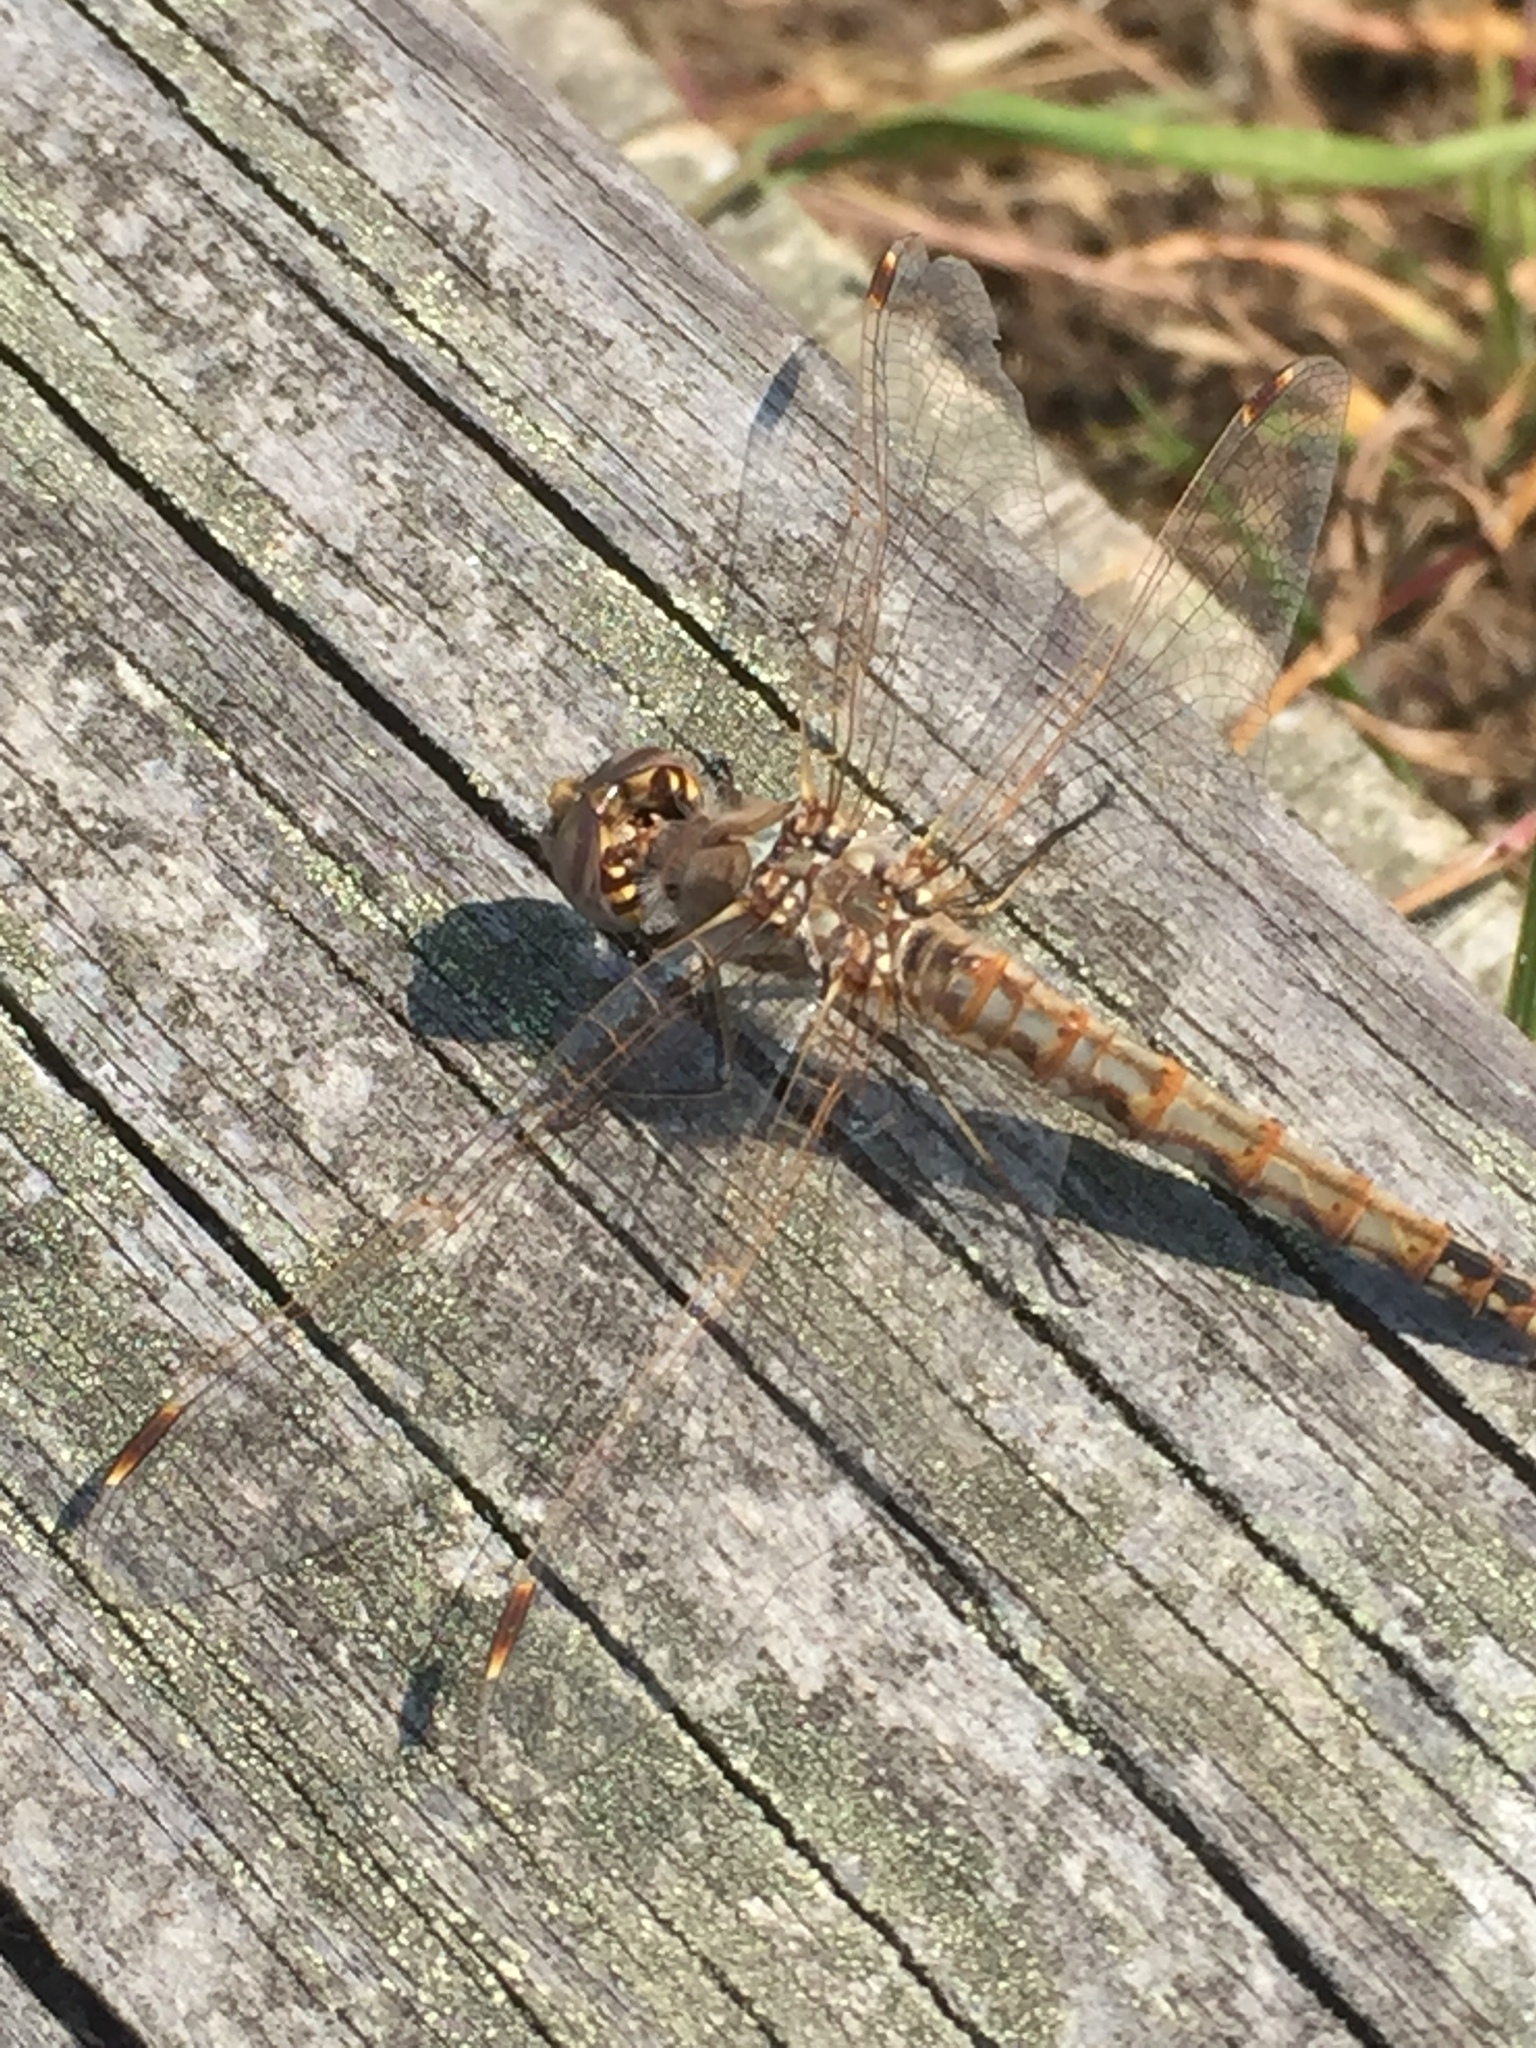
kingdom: Animalia
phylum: Arthropoda
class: Insecta
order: Odonata
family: Libellulidae
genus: Sympetrum
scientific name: Sympetrum corruptum
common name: Variegated meadowhawk
